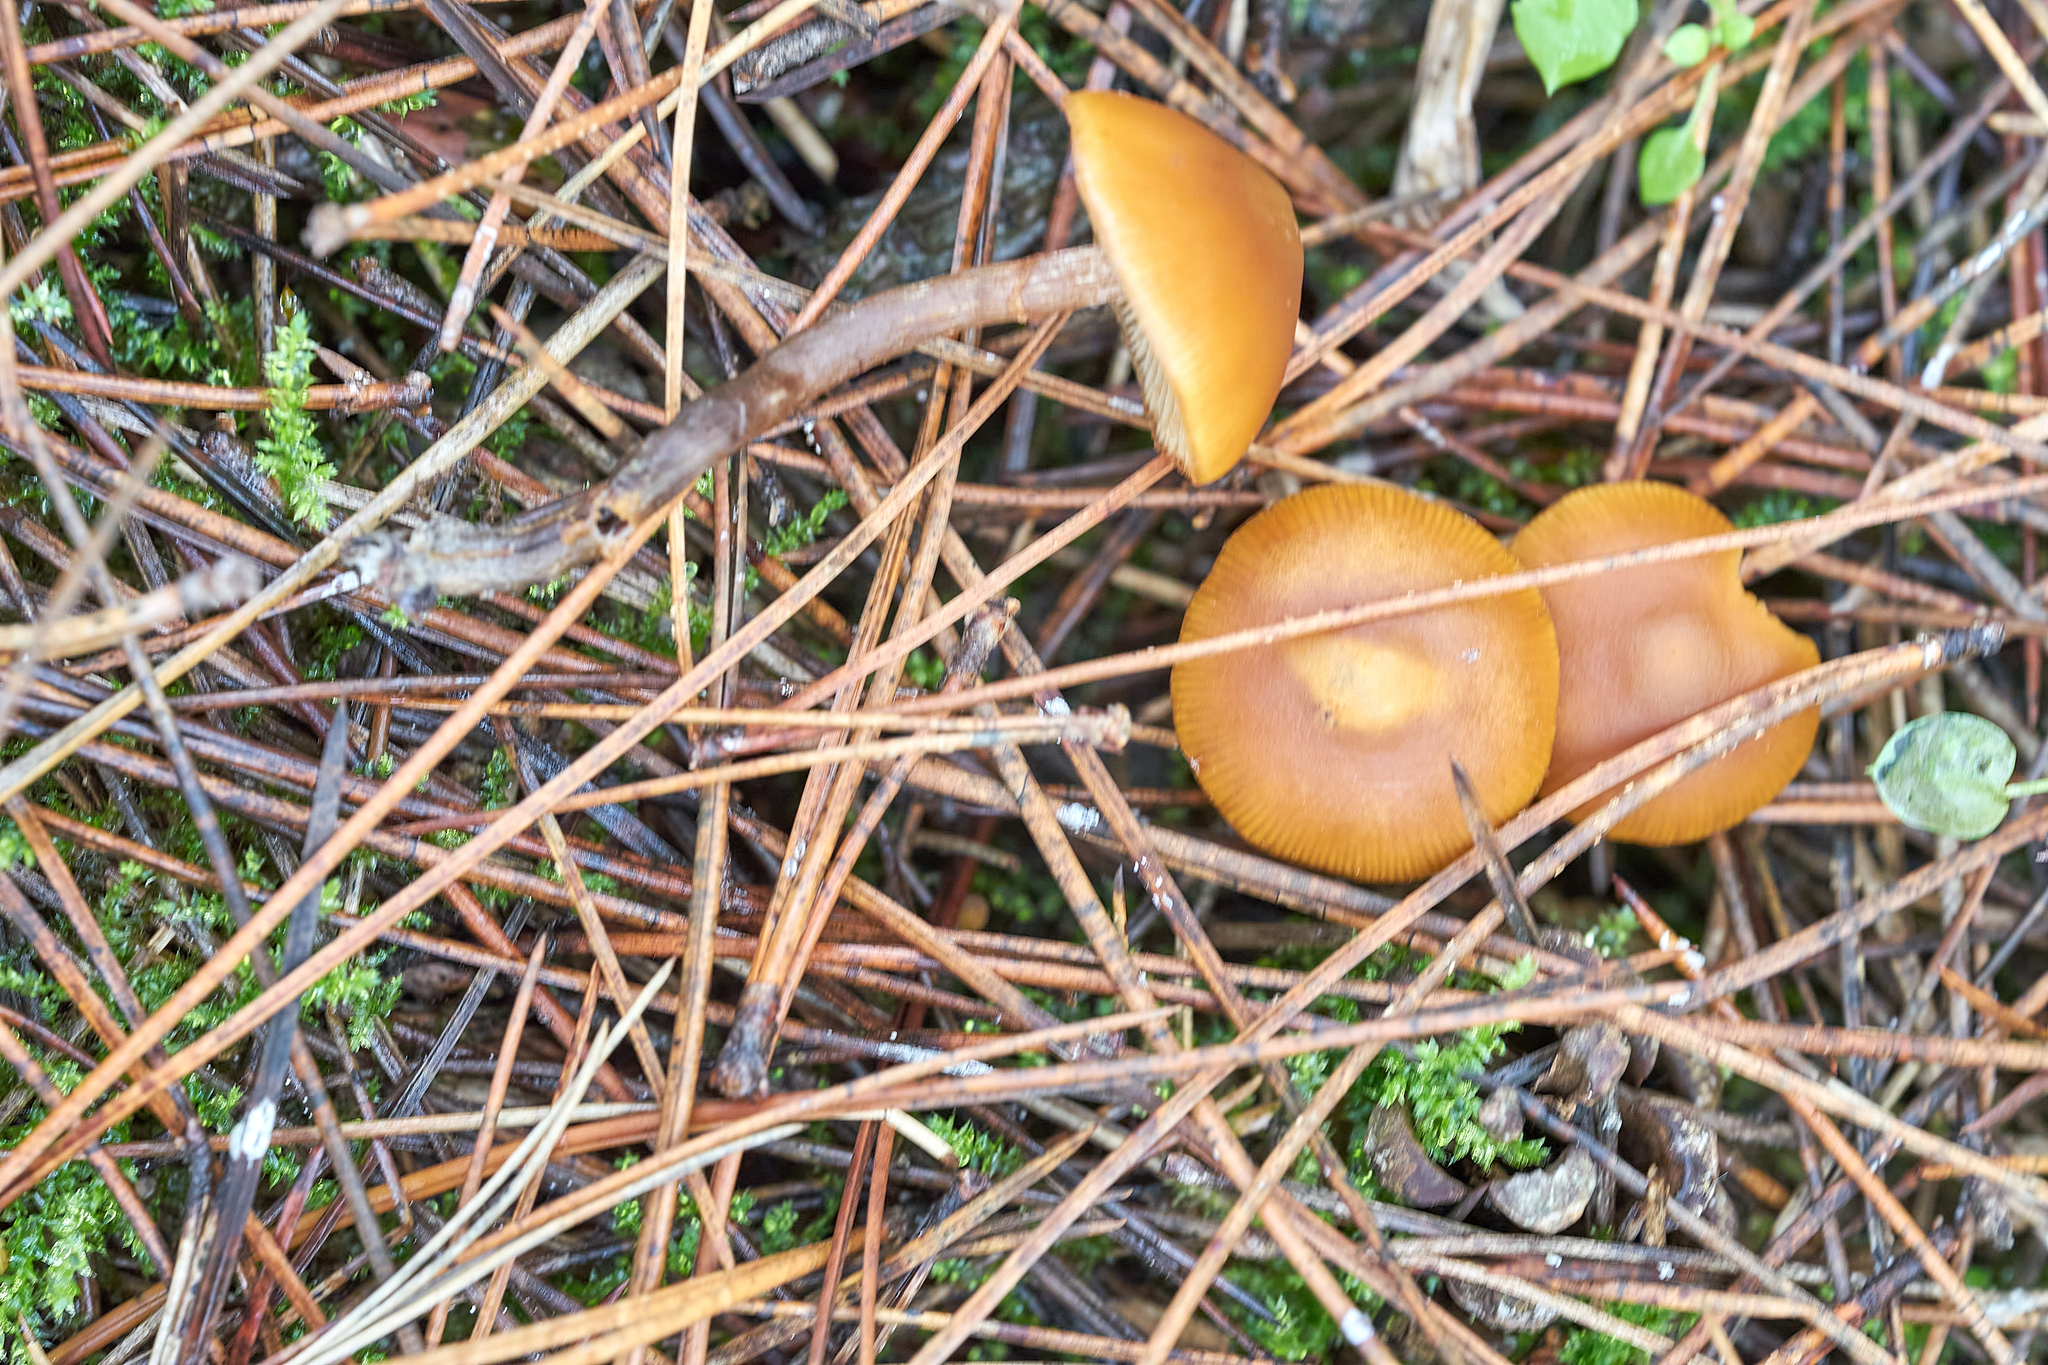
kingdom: Fungi
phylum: Basidiomycota
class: Agaricomycetes
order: Agaricales
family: Hymenogastraceae
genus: Galerina
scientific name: Galerina marginata
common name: Funeral bell
